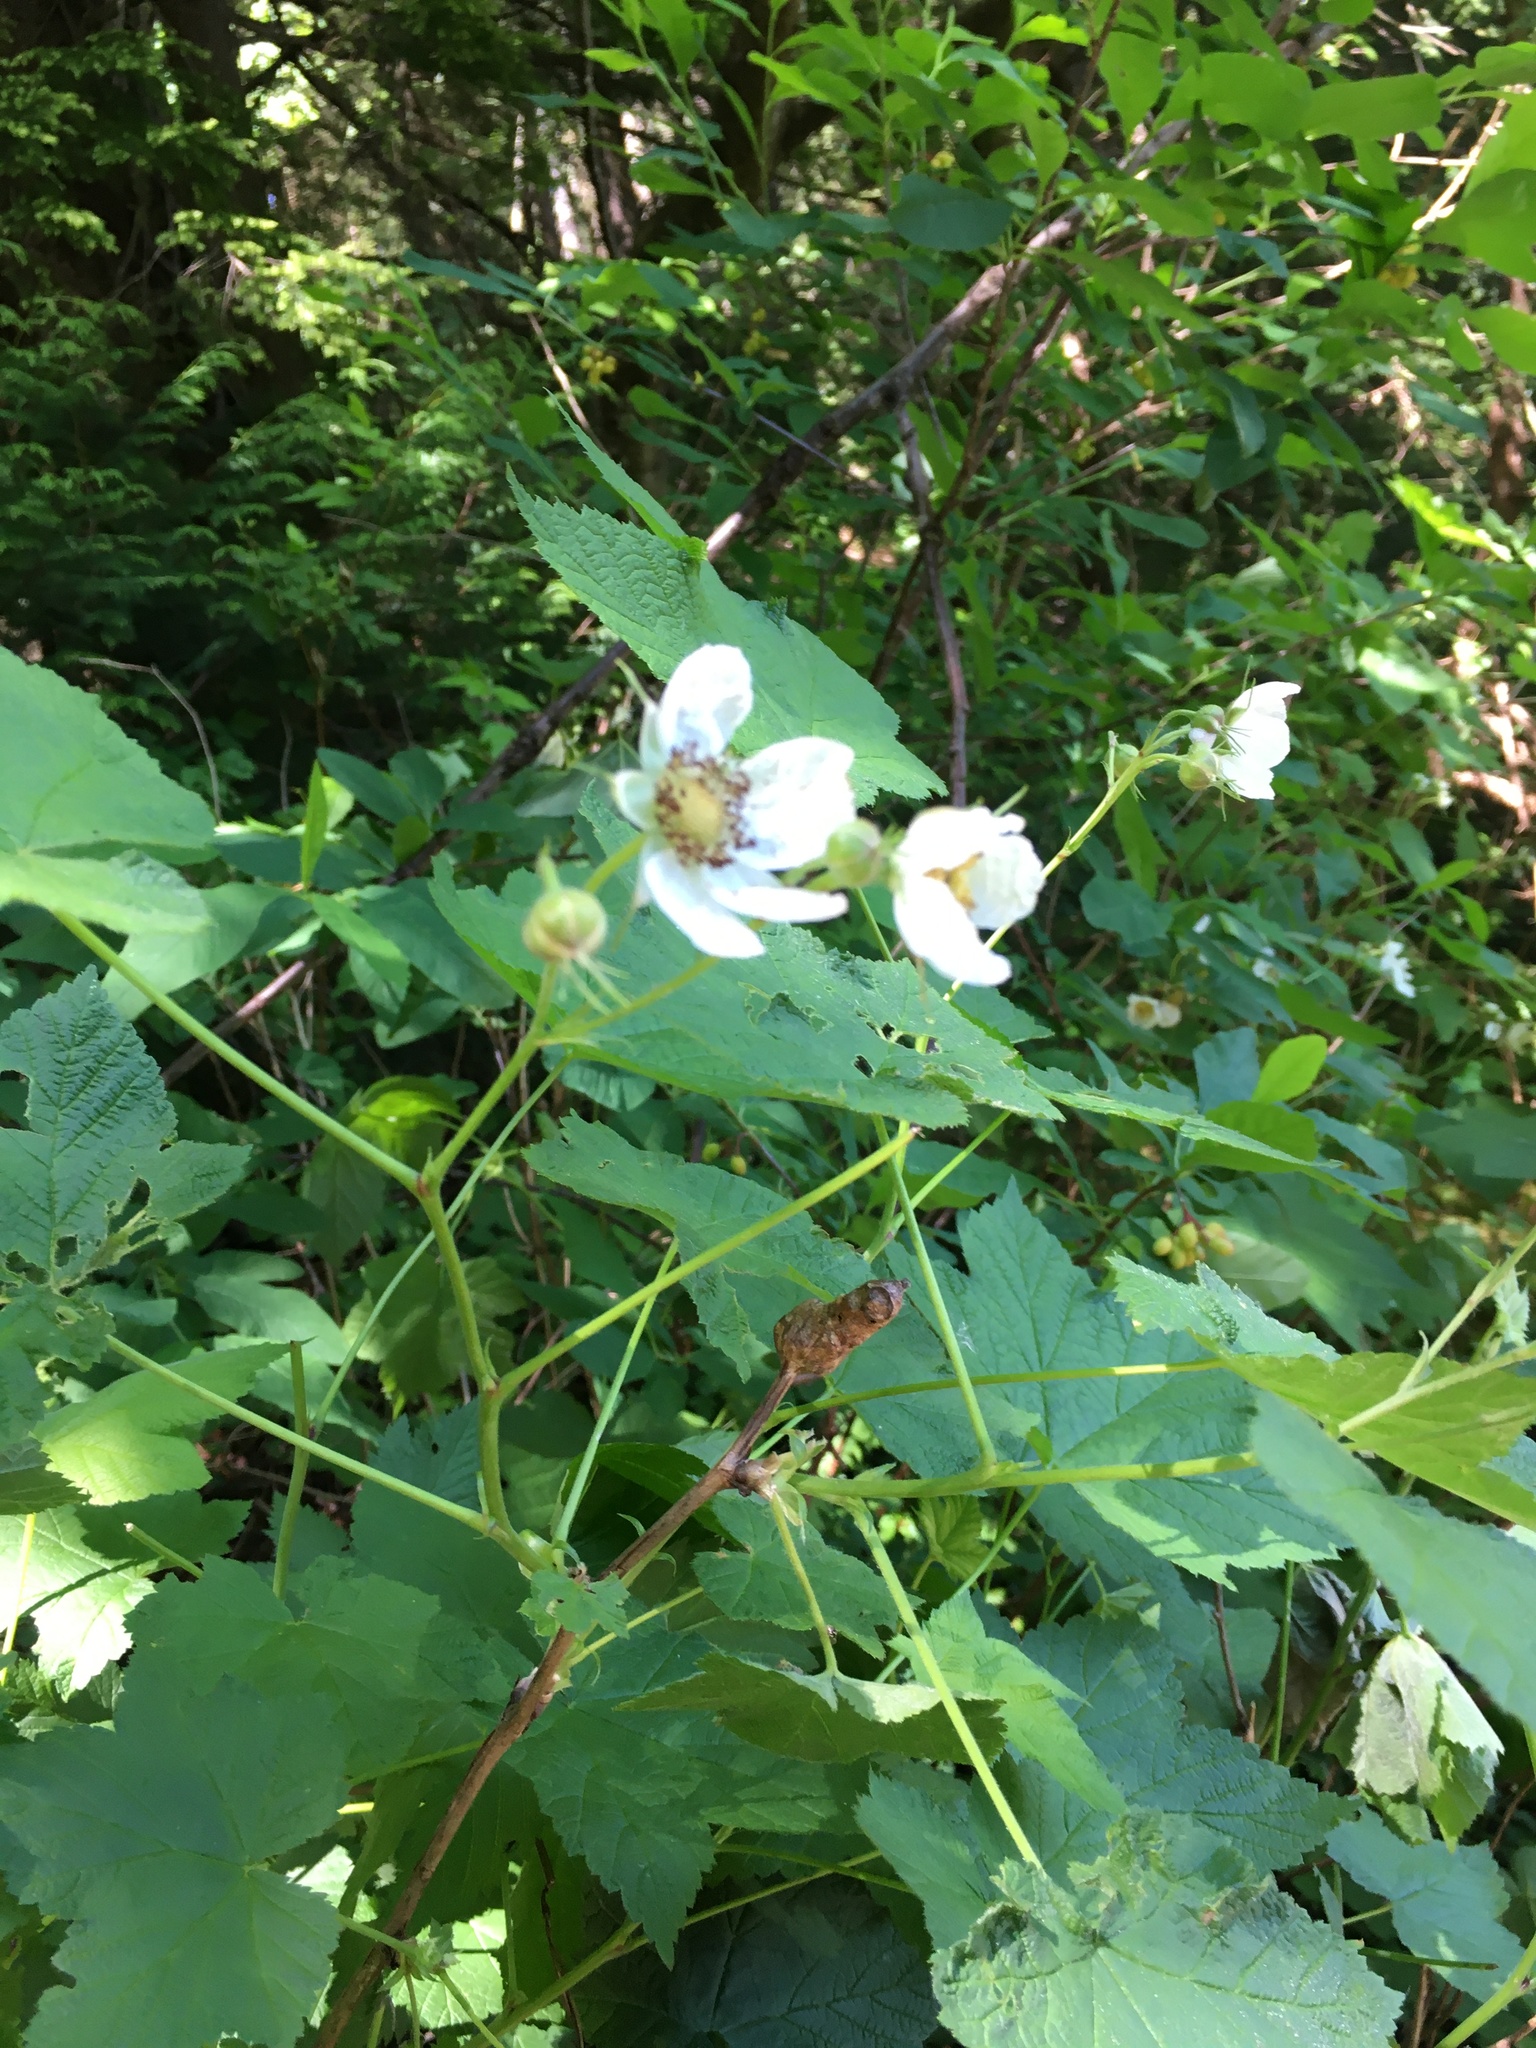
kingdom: Plantae
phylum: Tracheophyta
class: Magnoliopsida
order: Rosales
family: Rosaceae
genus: Rubus
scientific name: Rubus parviflorus
